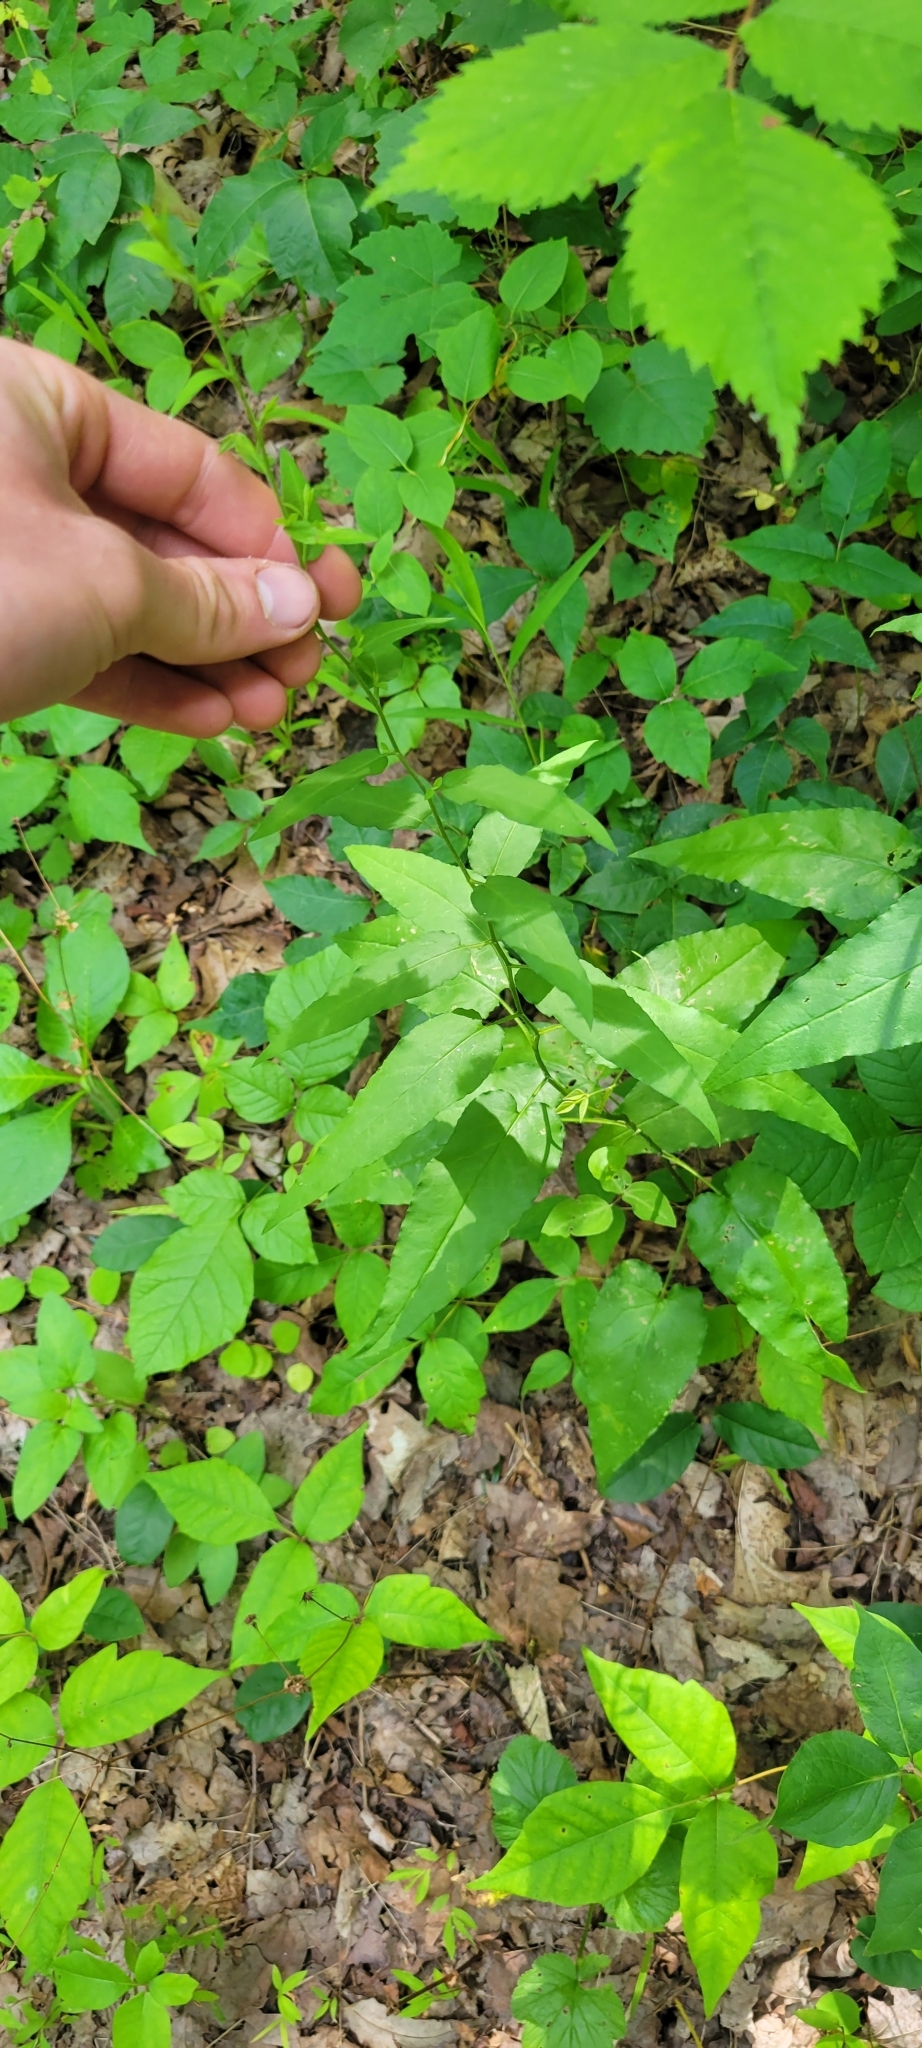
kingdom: Plantae
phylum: Tracheophyta
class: Magnoliopsida
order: Asterales
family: Asteraceae
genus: Symphyotrichum
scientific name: Symphyotrichum shortii
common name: Short's aster
